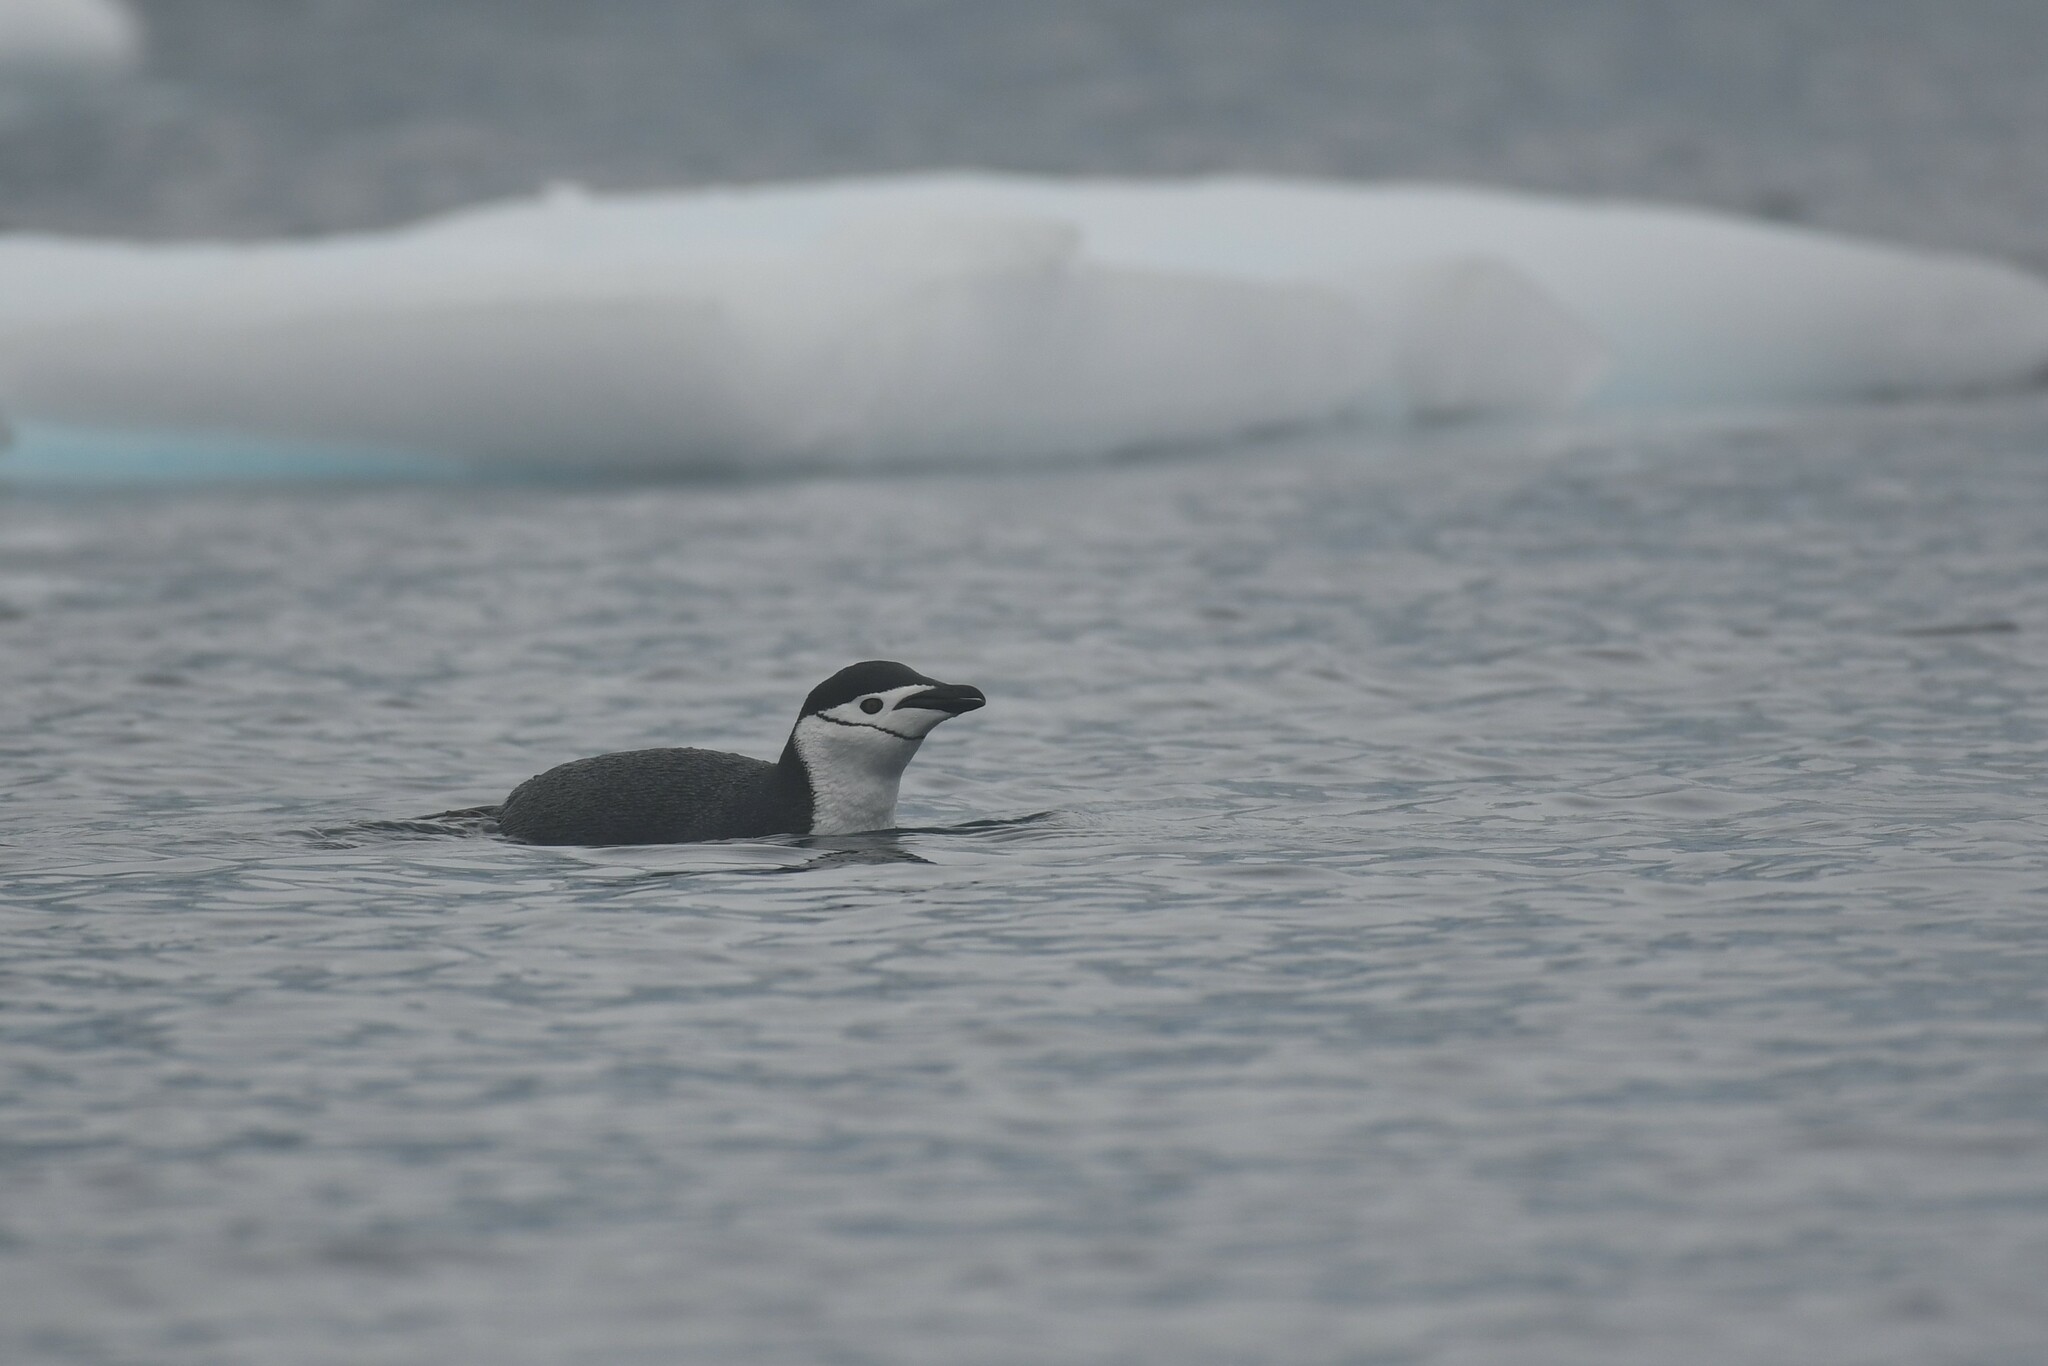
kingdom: Animalia
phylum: Chordata
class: Aves
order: Sphenisciformes
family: Spheniscidae
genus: Pygoscelis
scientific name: Pygoscelis antarcticus
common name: Chinstrap penguin
